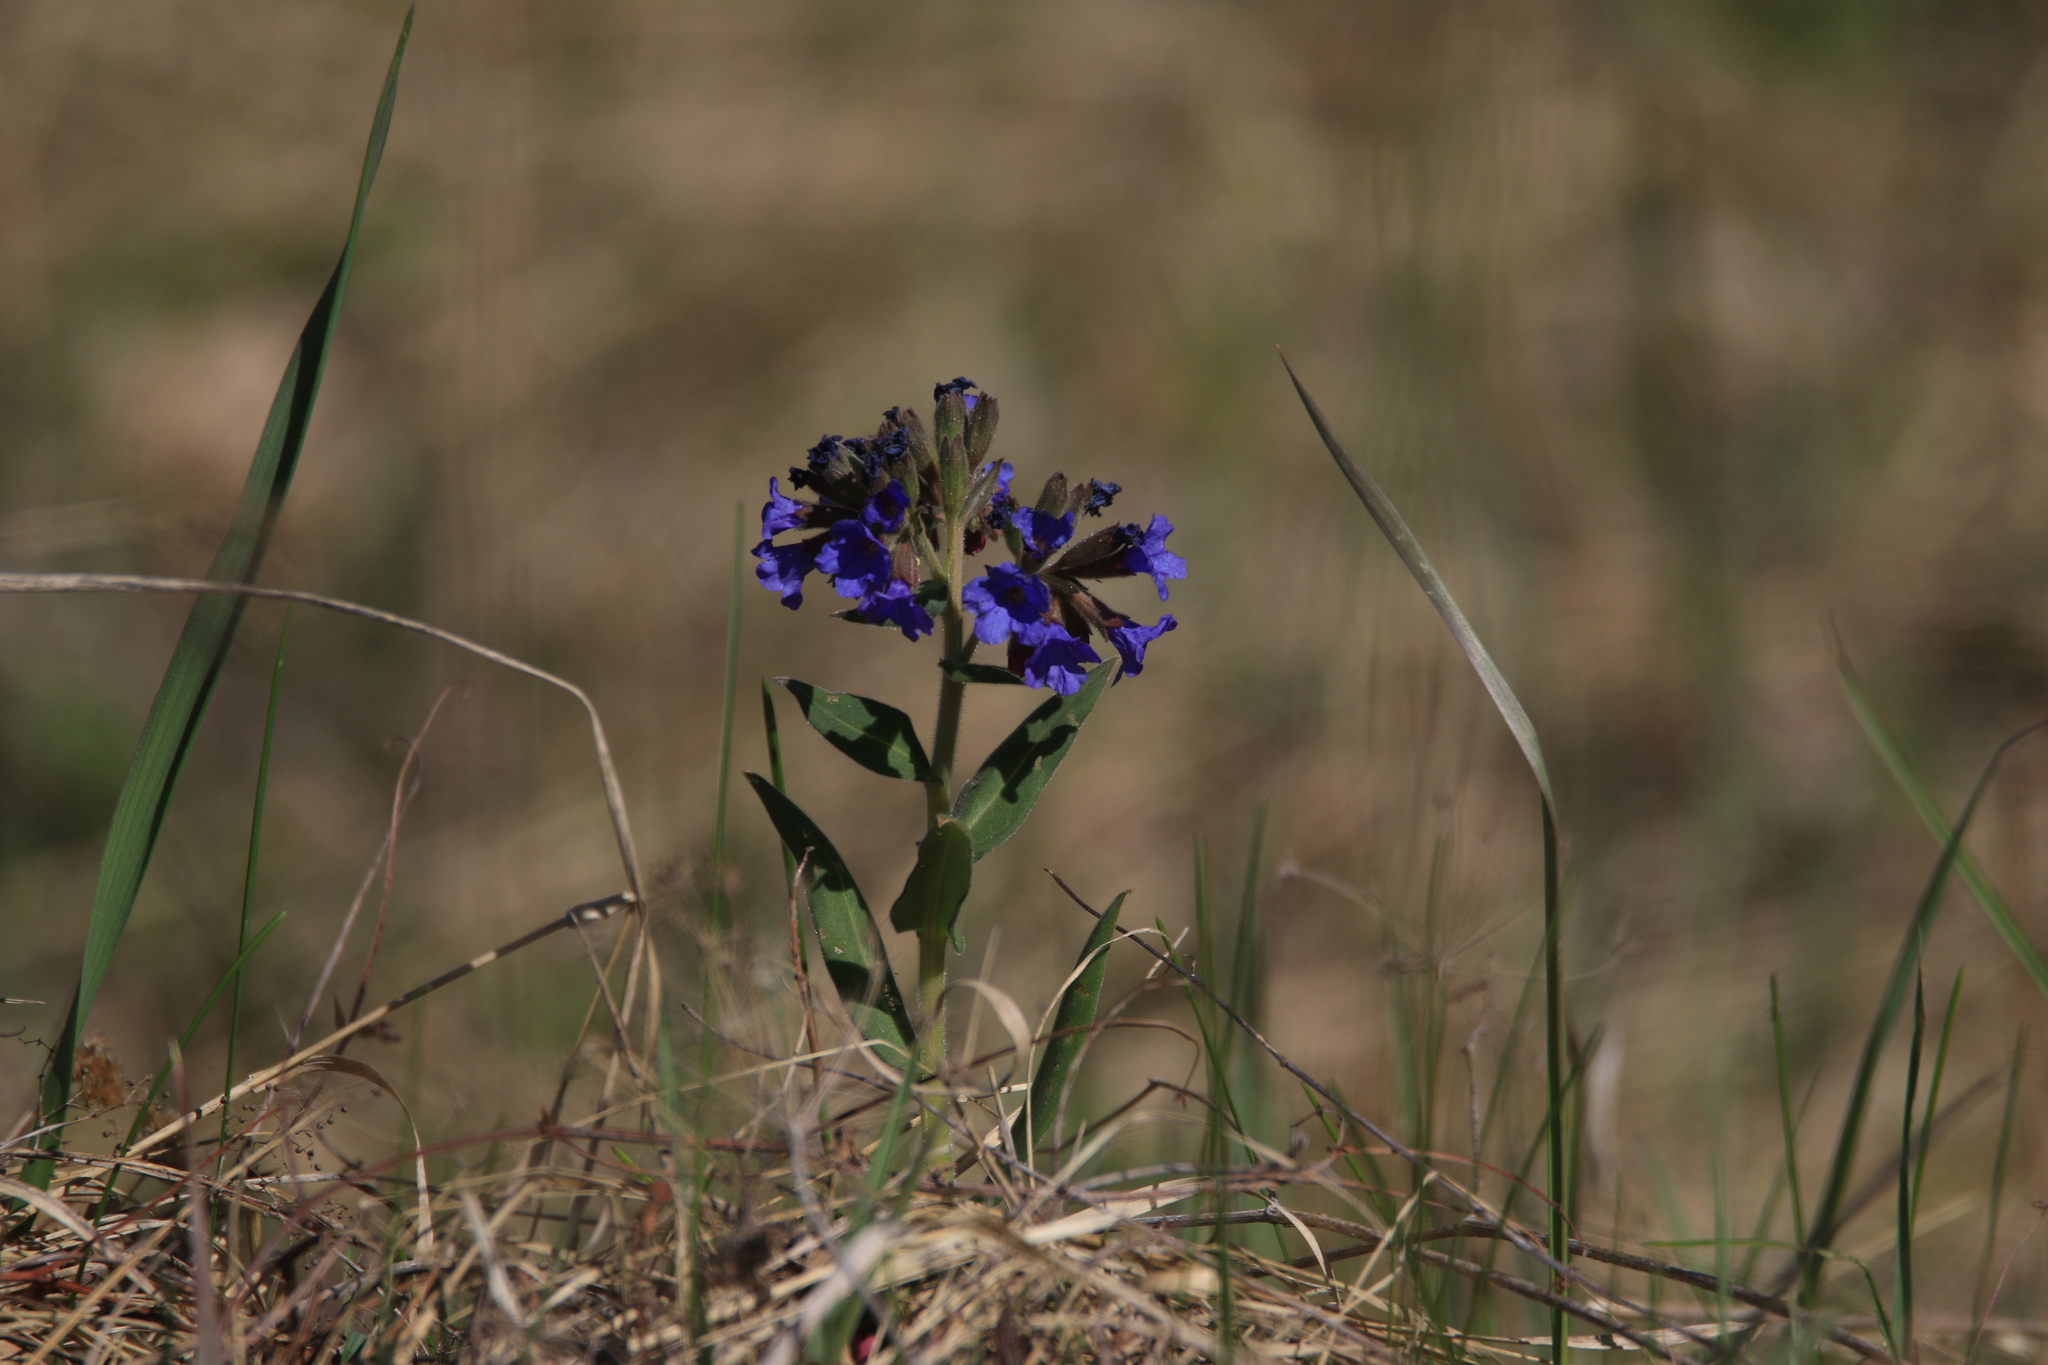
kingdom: Plantae
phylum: Tracheophyta
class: Magnoliopsida
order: Boraginales
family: Boraginaceae
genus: Pulmonaria
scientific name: Pulmonaria mollis
